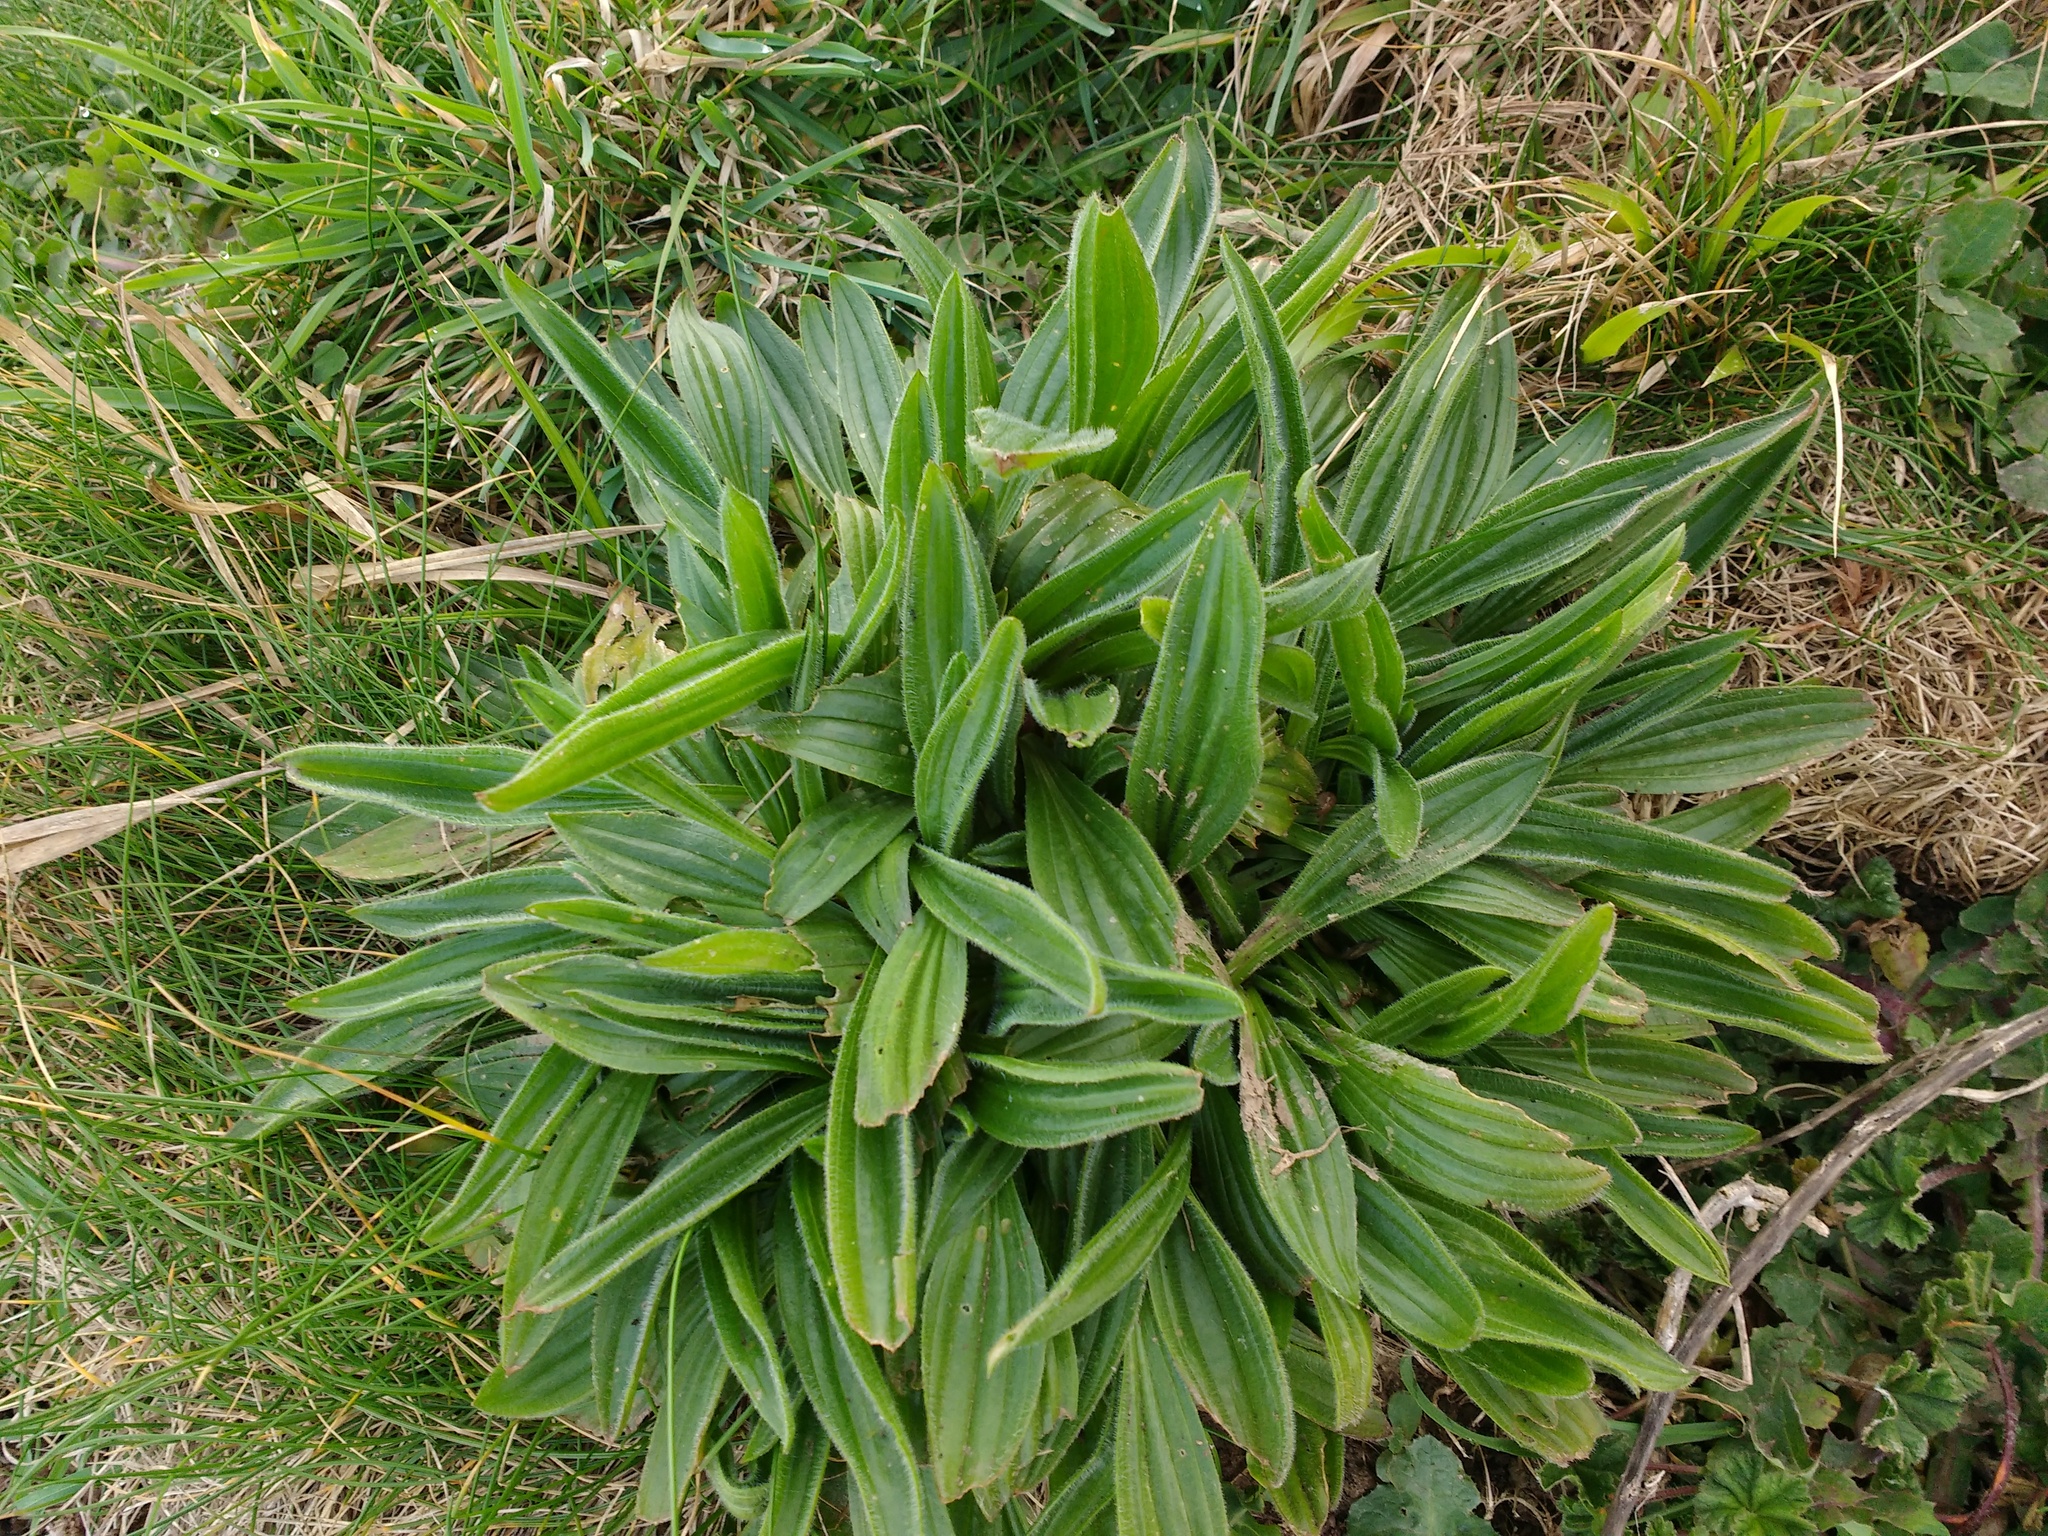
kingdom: Plantae
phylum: Tracheophyta
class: Magnoliopsida
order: Lamiales
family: Plantaginaceae
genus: Plantago
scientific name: Plantago lanceolata
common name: Ribwort plantain
